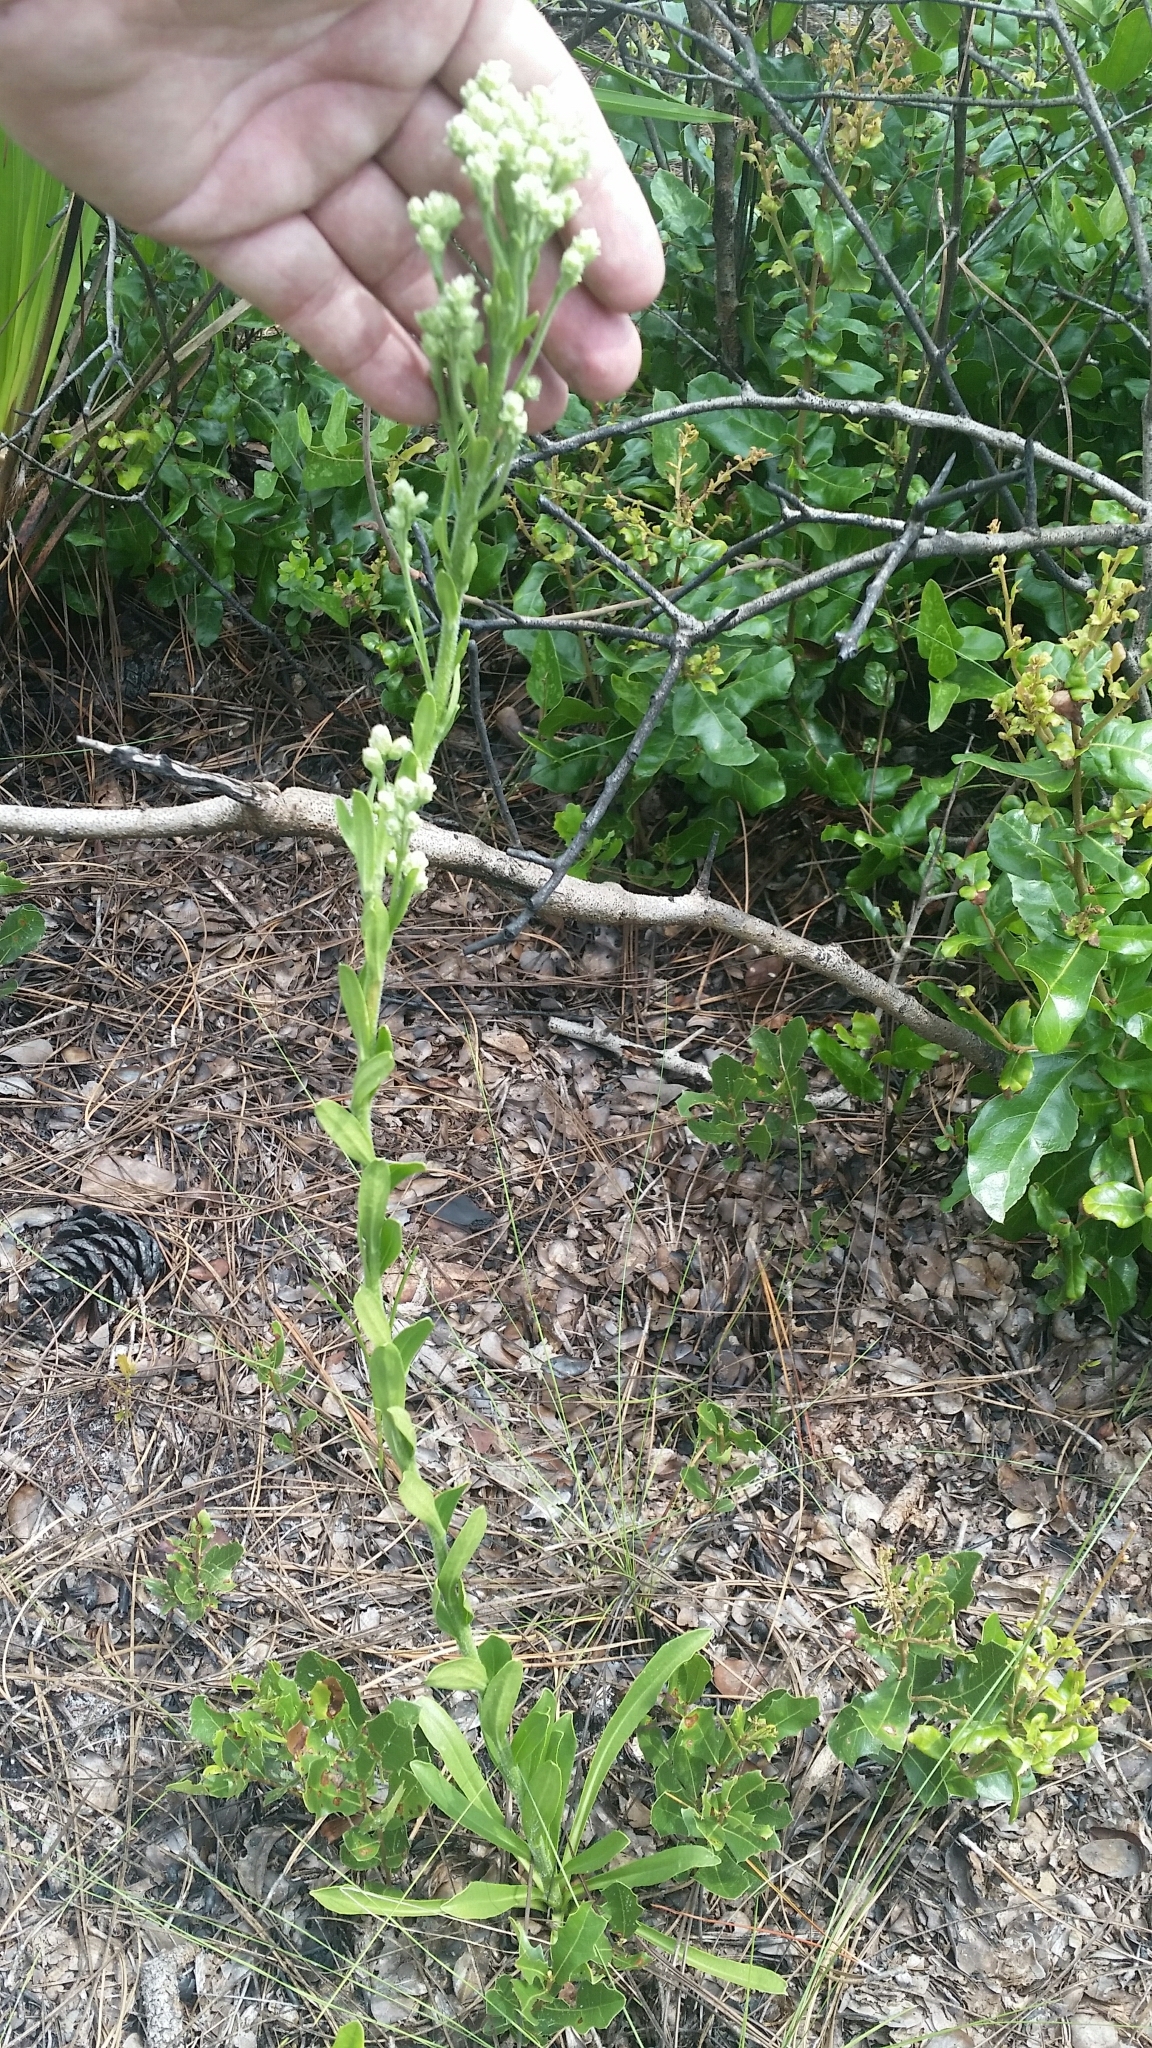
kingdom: Plantae
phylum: Tracheophyta
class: Magnoliopsida
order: Asterales
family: Asteraceae
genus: Carphephorus
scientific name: Carphephorus corymbosus
